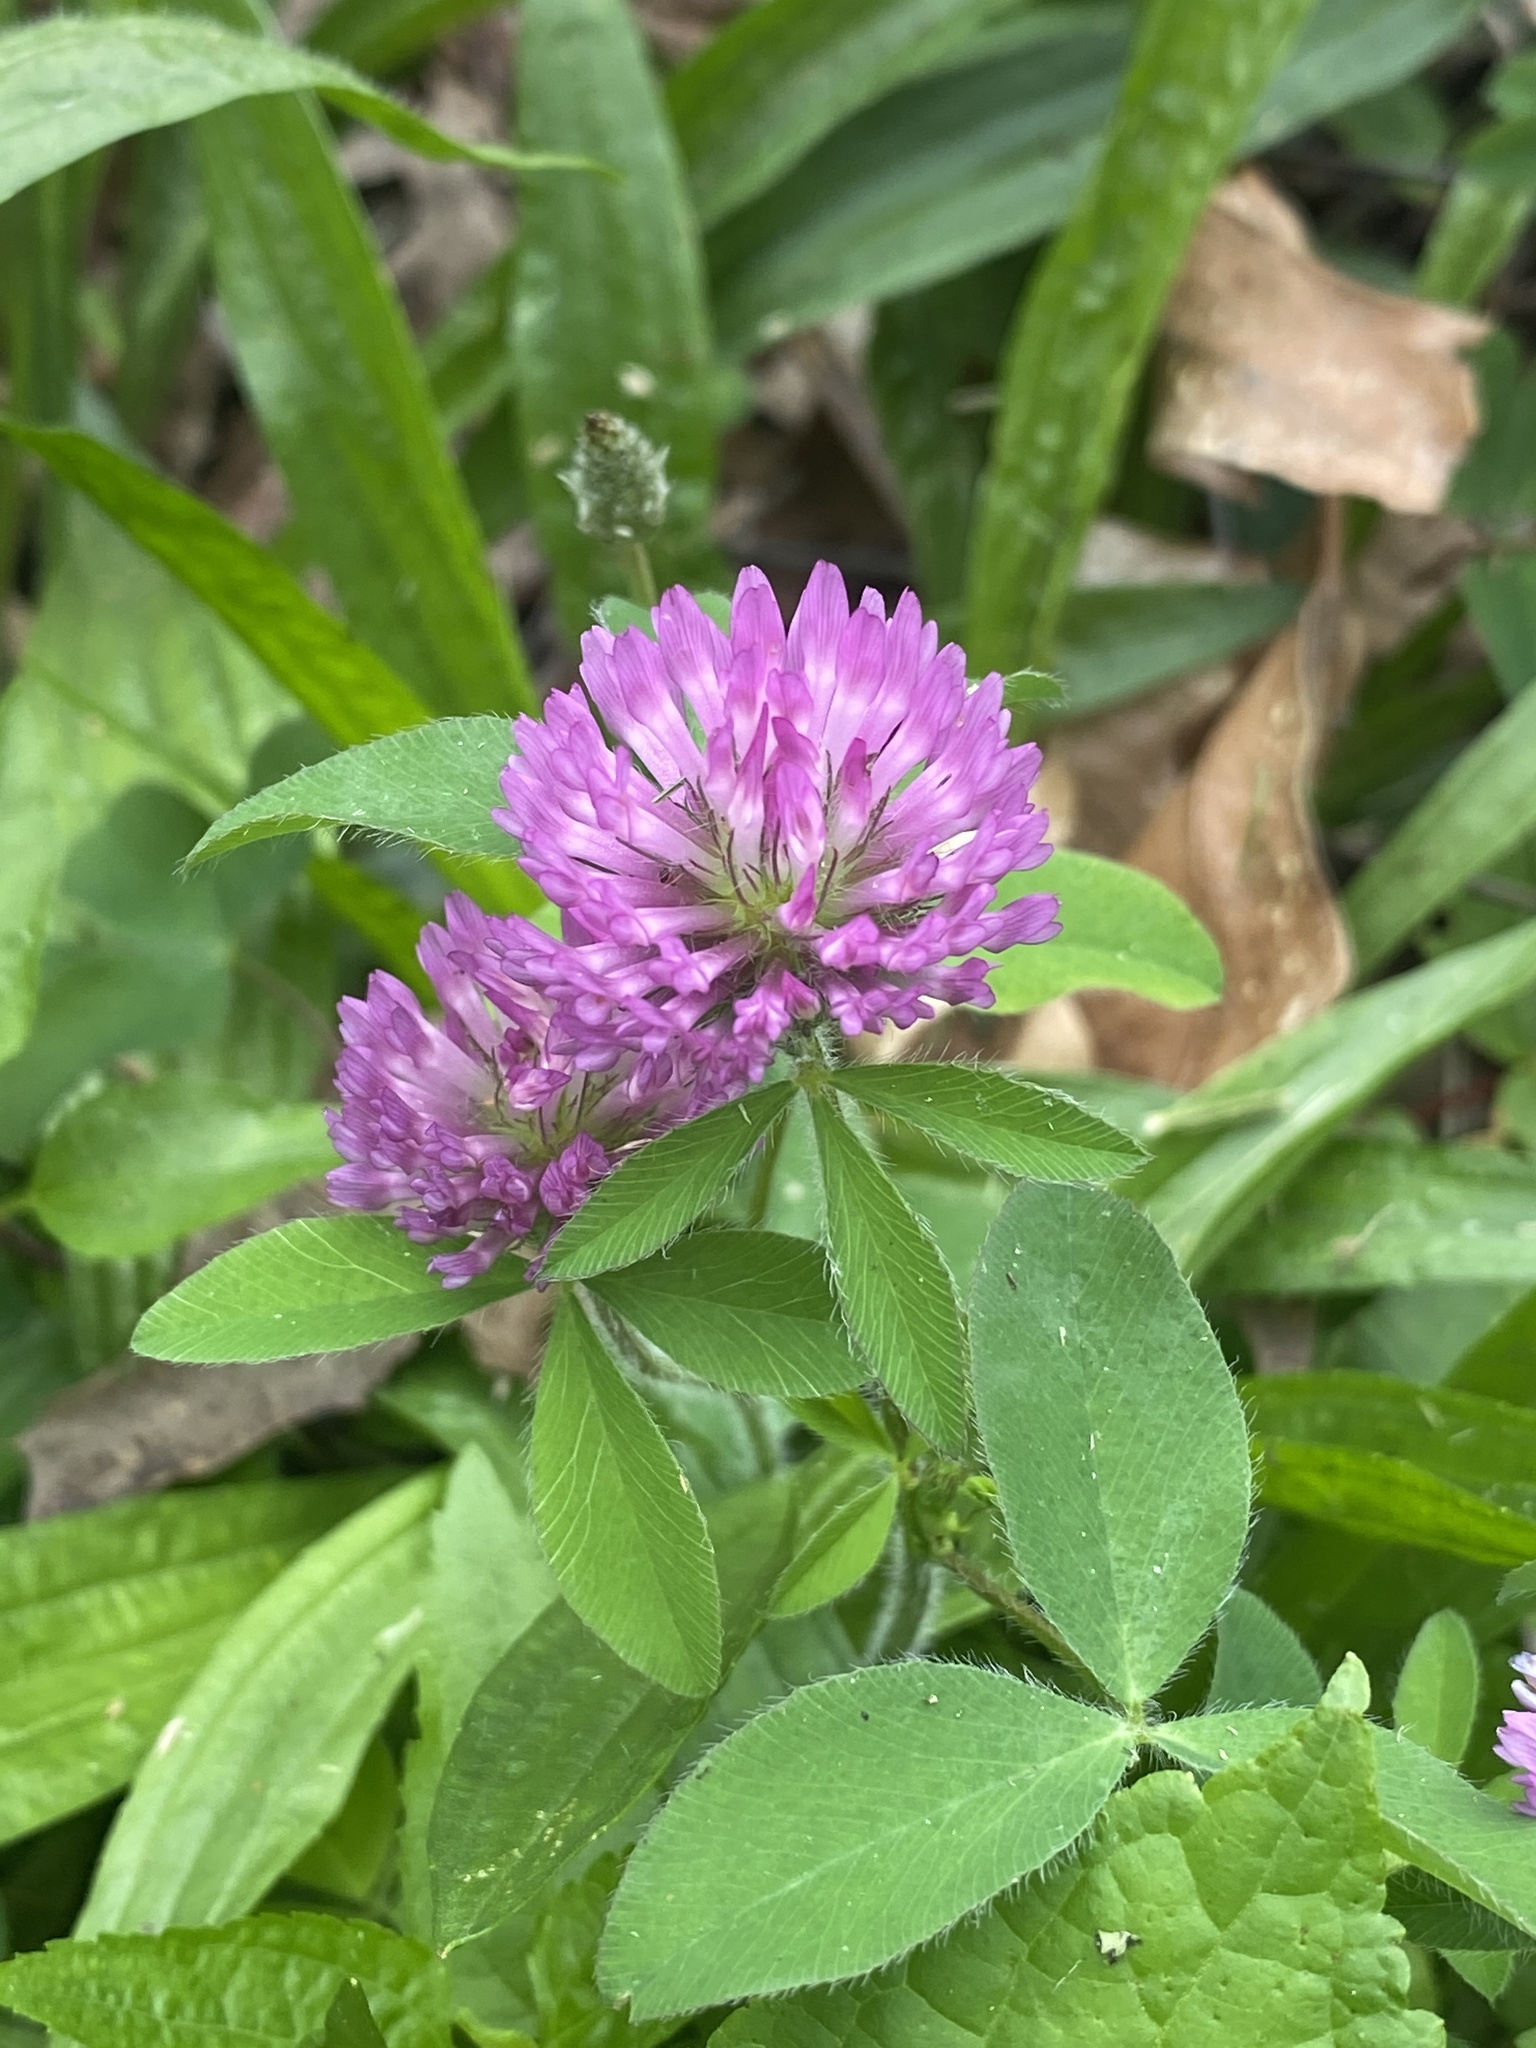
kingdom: Plantae
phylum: Tracheophyta
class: Magnoliopsida
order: Fabales
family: Fabaceae
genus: Trifolium
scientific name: Trifolium pratense
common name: Red clover
